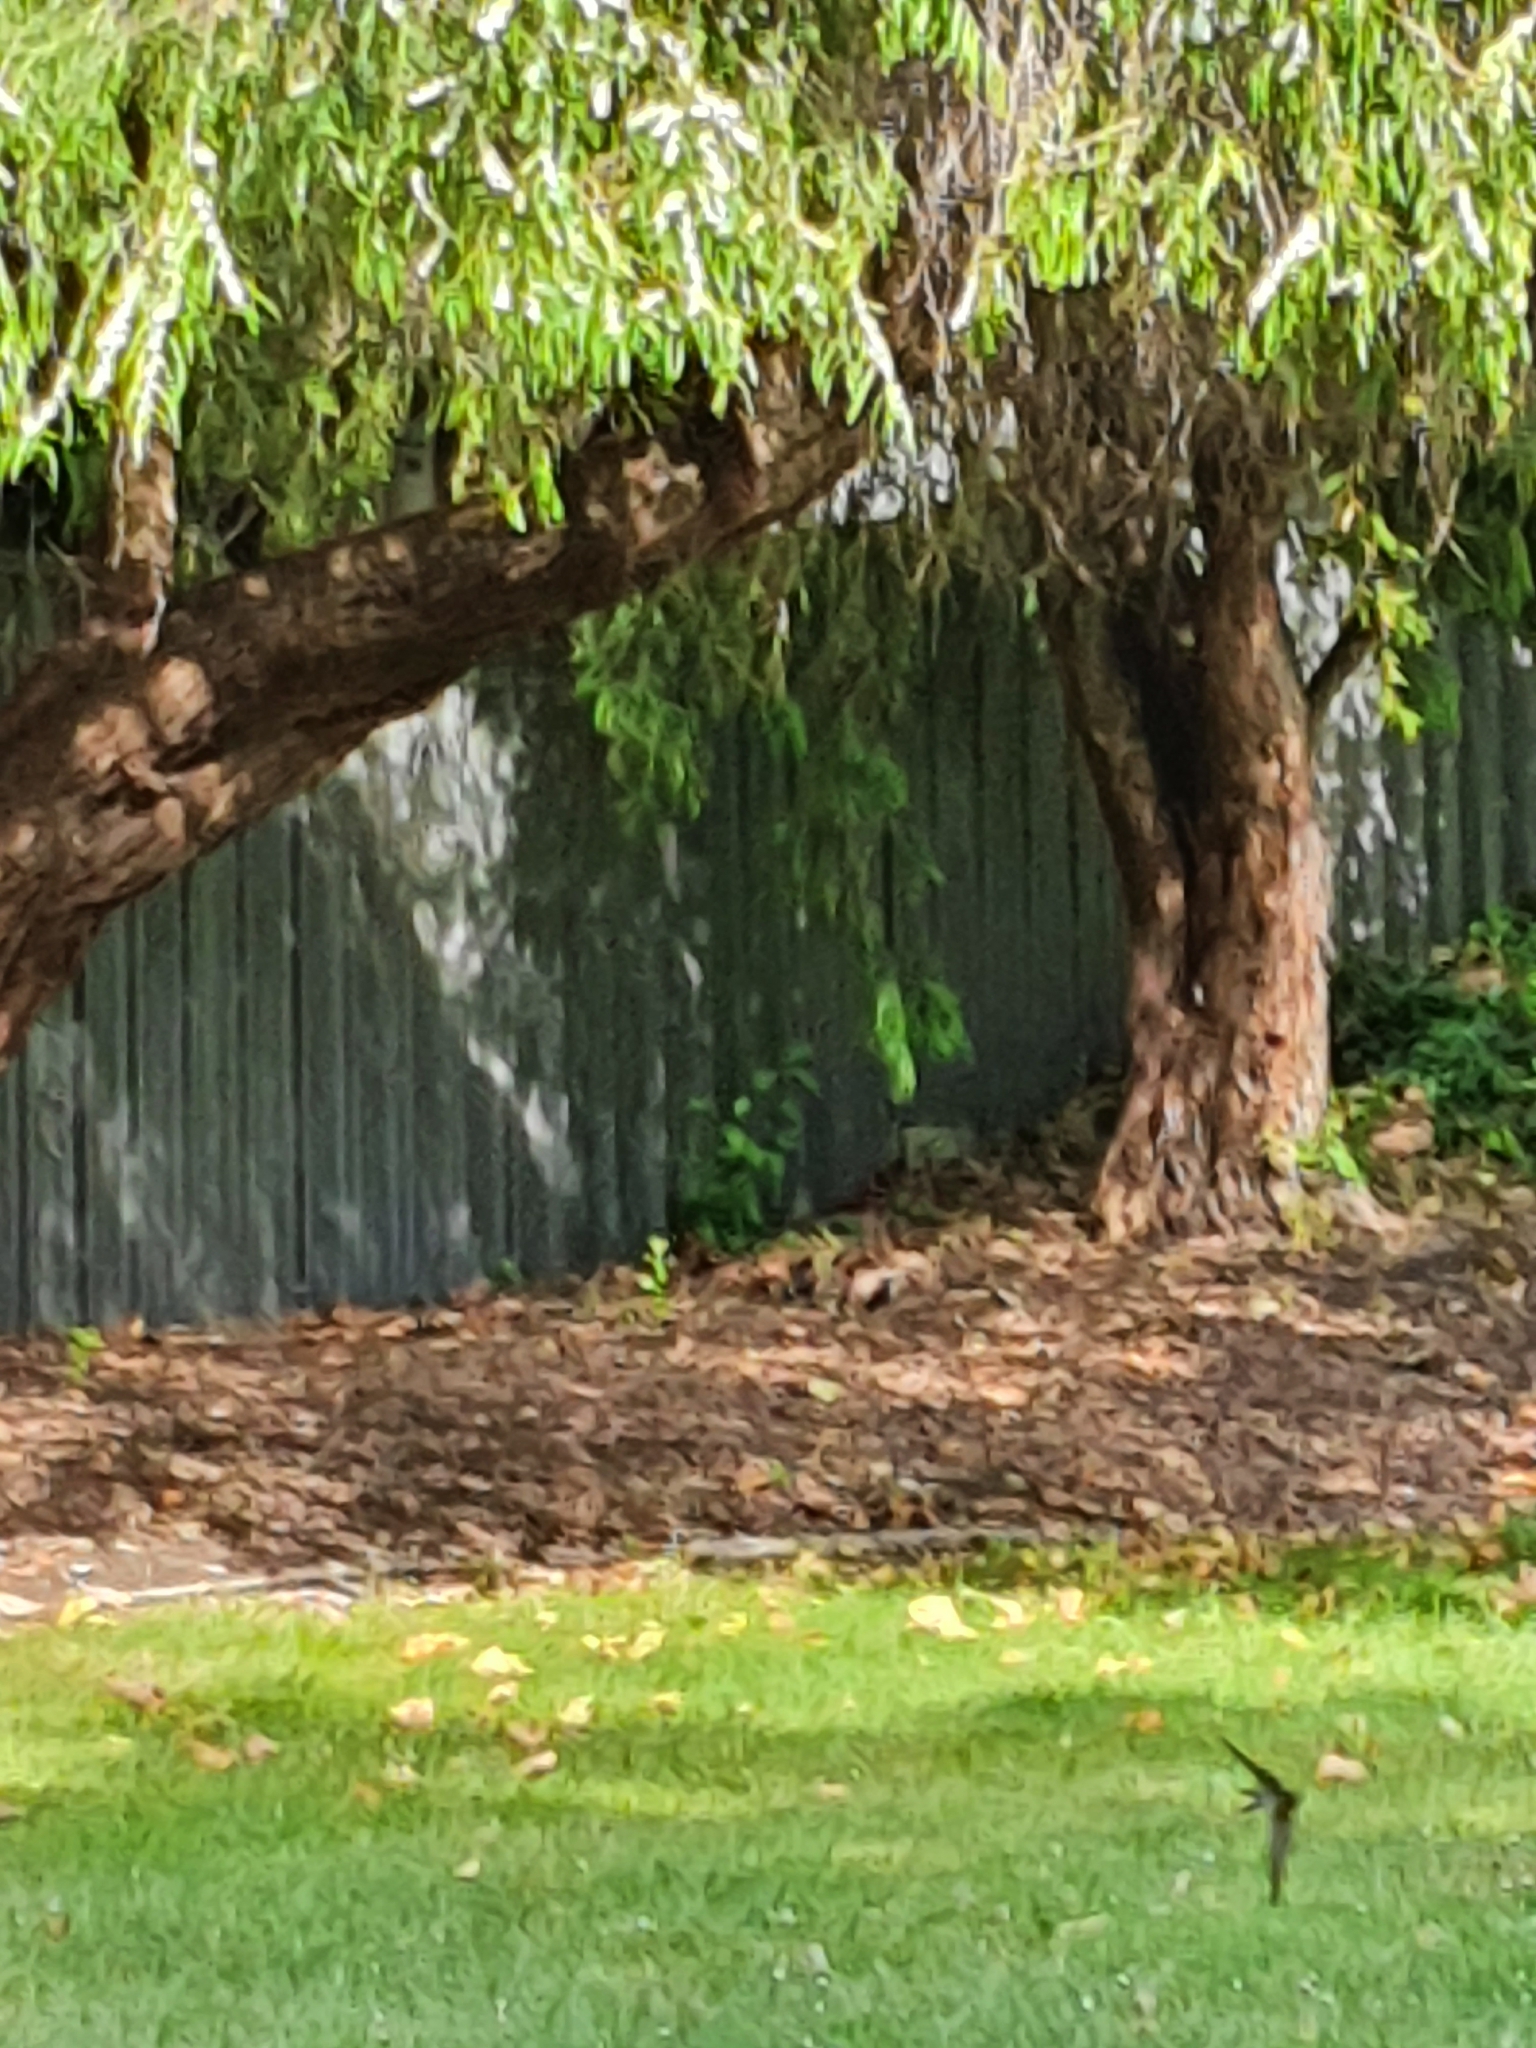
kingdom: Animalia
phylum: Chordata
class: Aves
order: Passeriformes
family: Hirundinidae
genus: Hirundo
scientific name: Hirundo neoxena
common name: Welcome swallow
